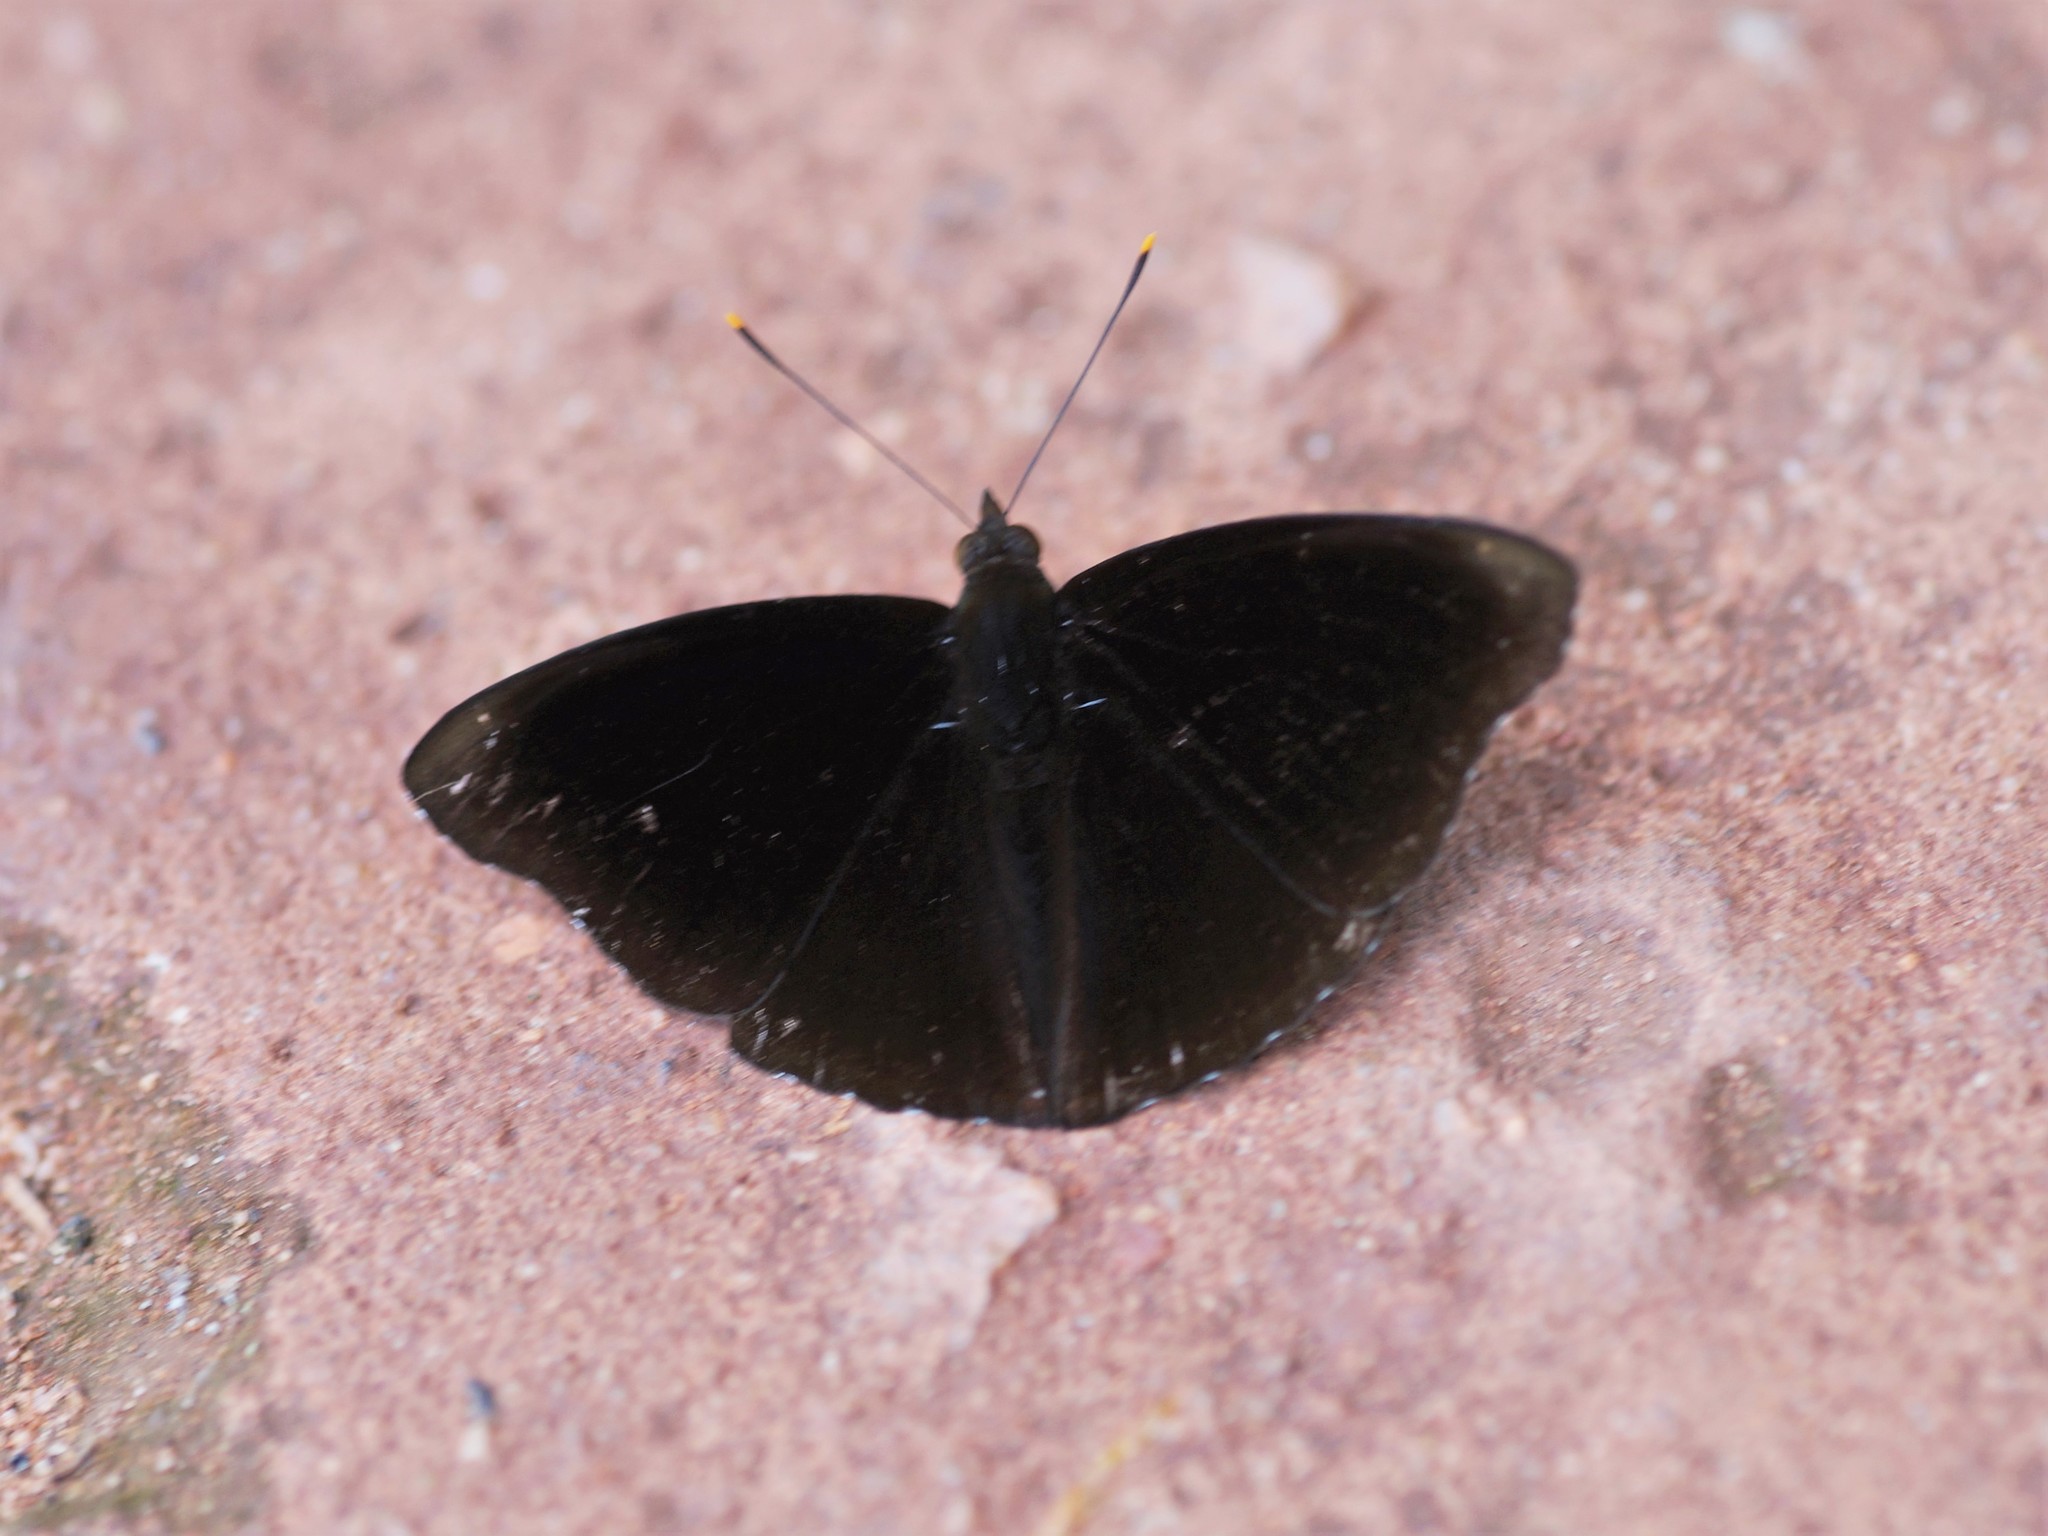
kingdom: Animalia
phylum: Arthropoda
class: Insecta
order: Lepidoptera
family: Nymphalidae
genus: Apatura
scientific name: Apatura Rohana spec
